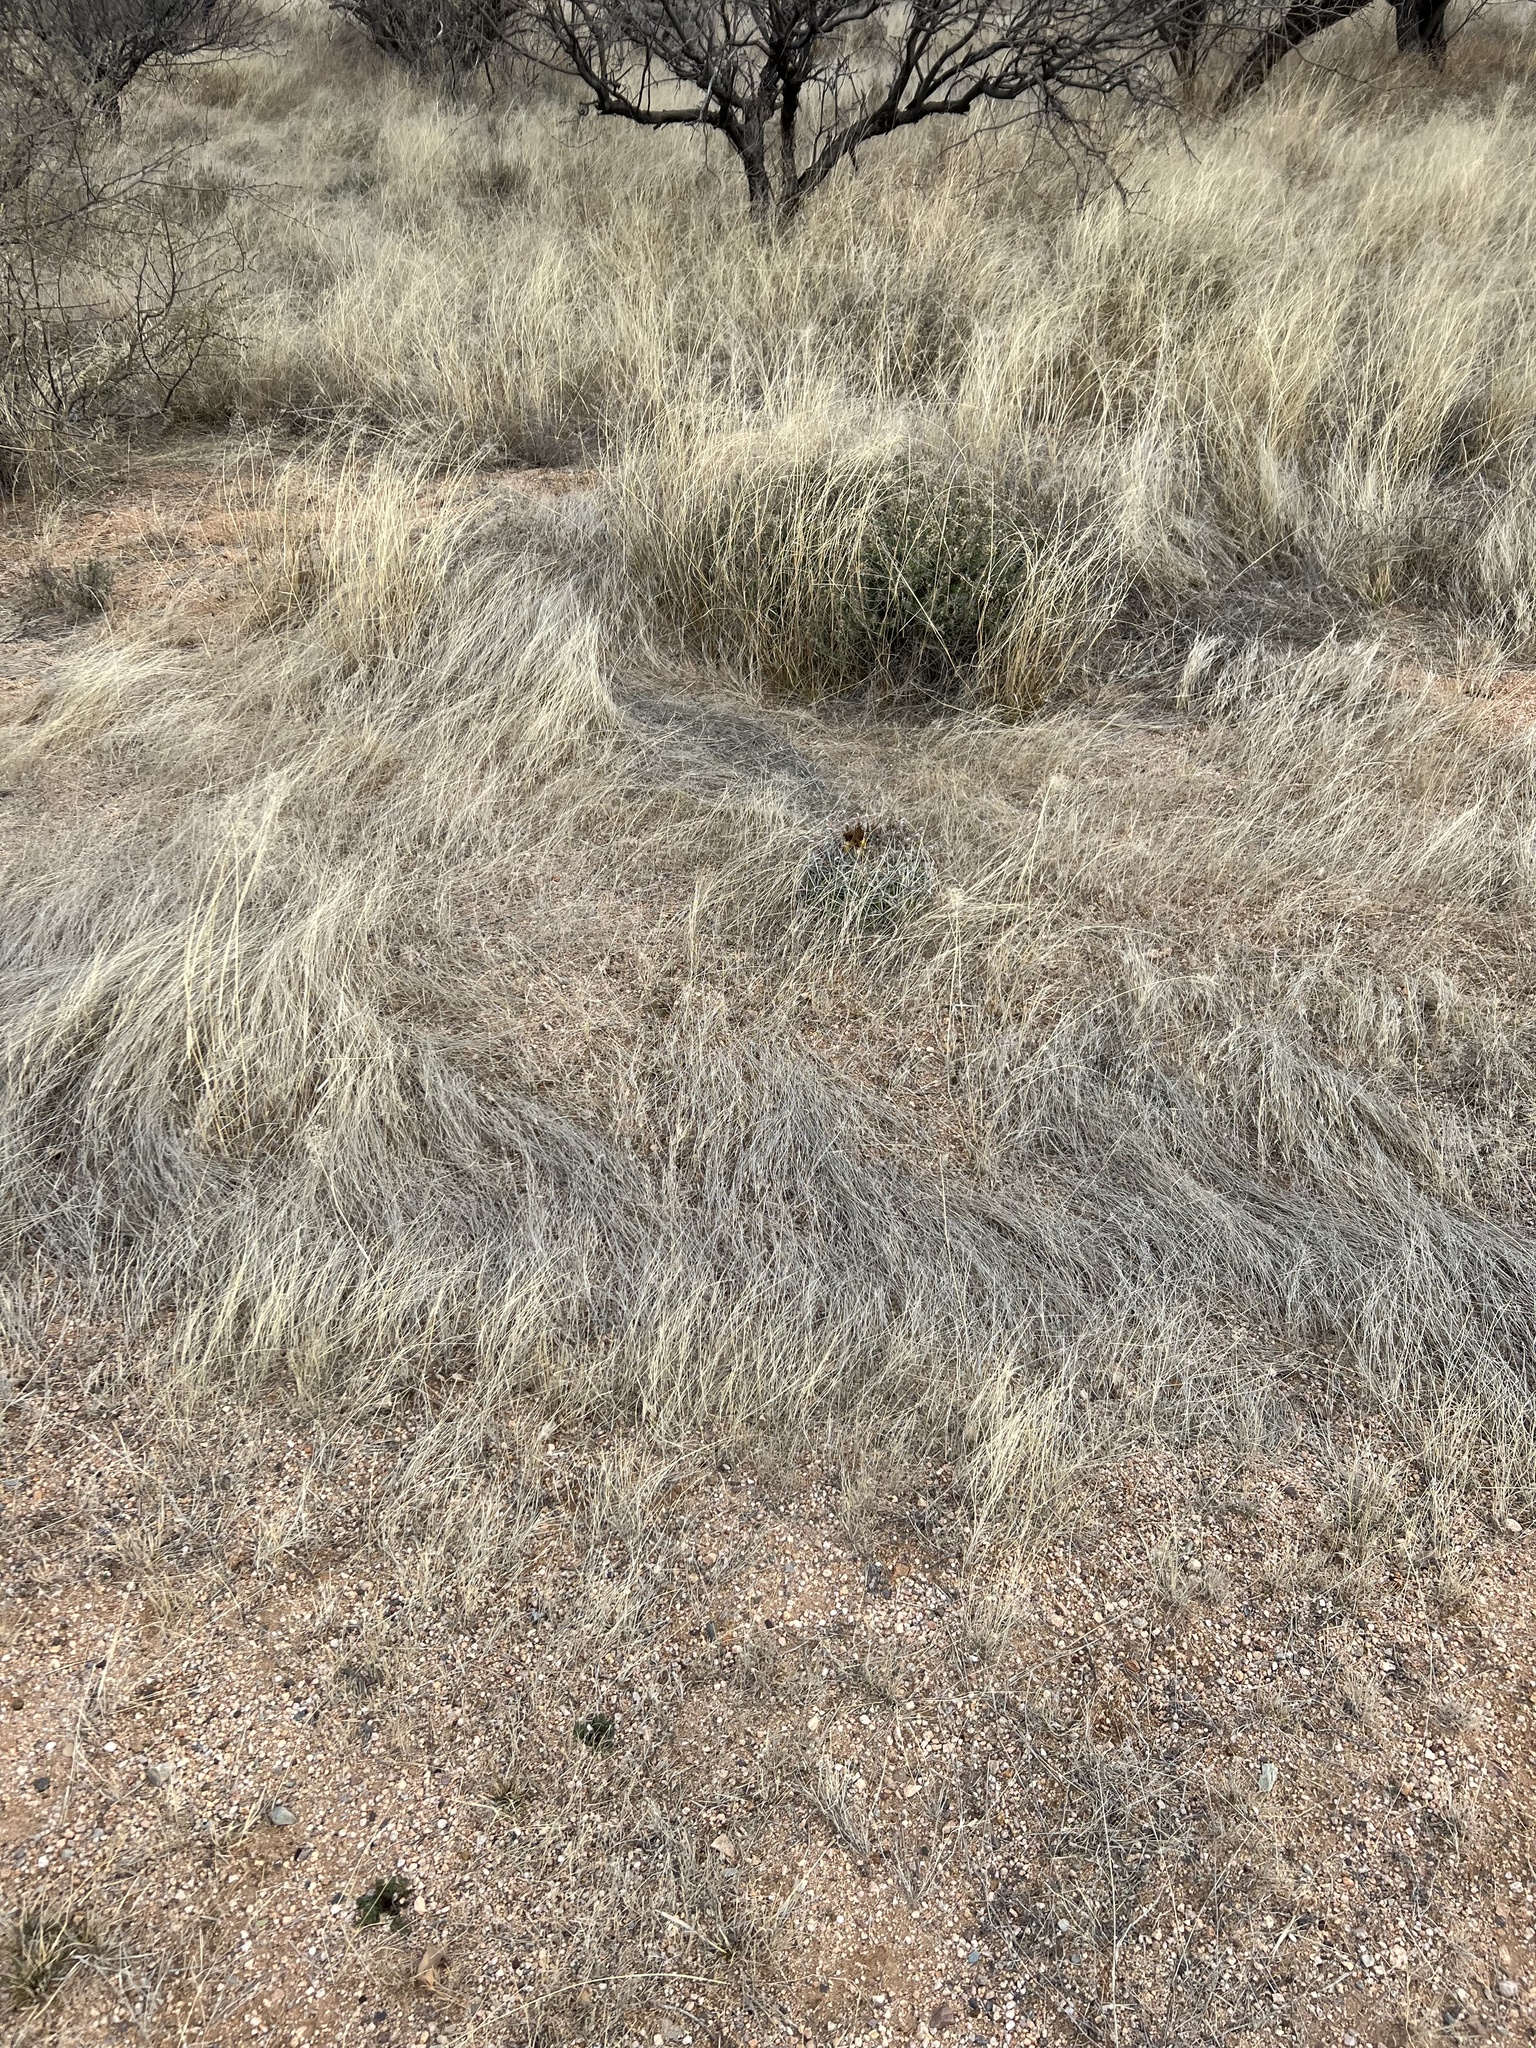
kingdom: Plantae
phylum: Tracheophyta
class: Magnoliopsida
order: Caryophyllales
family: Cactaceae
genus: Ferocactus
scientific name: Ferocactus wislizeni
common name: Candy barrel cactus
